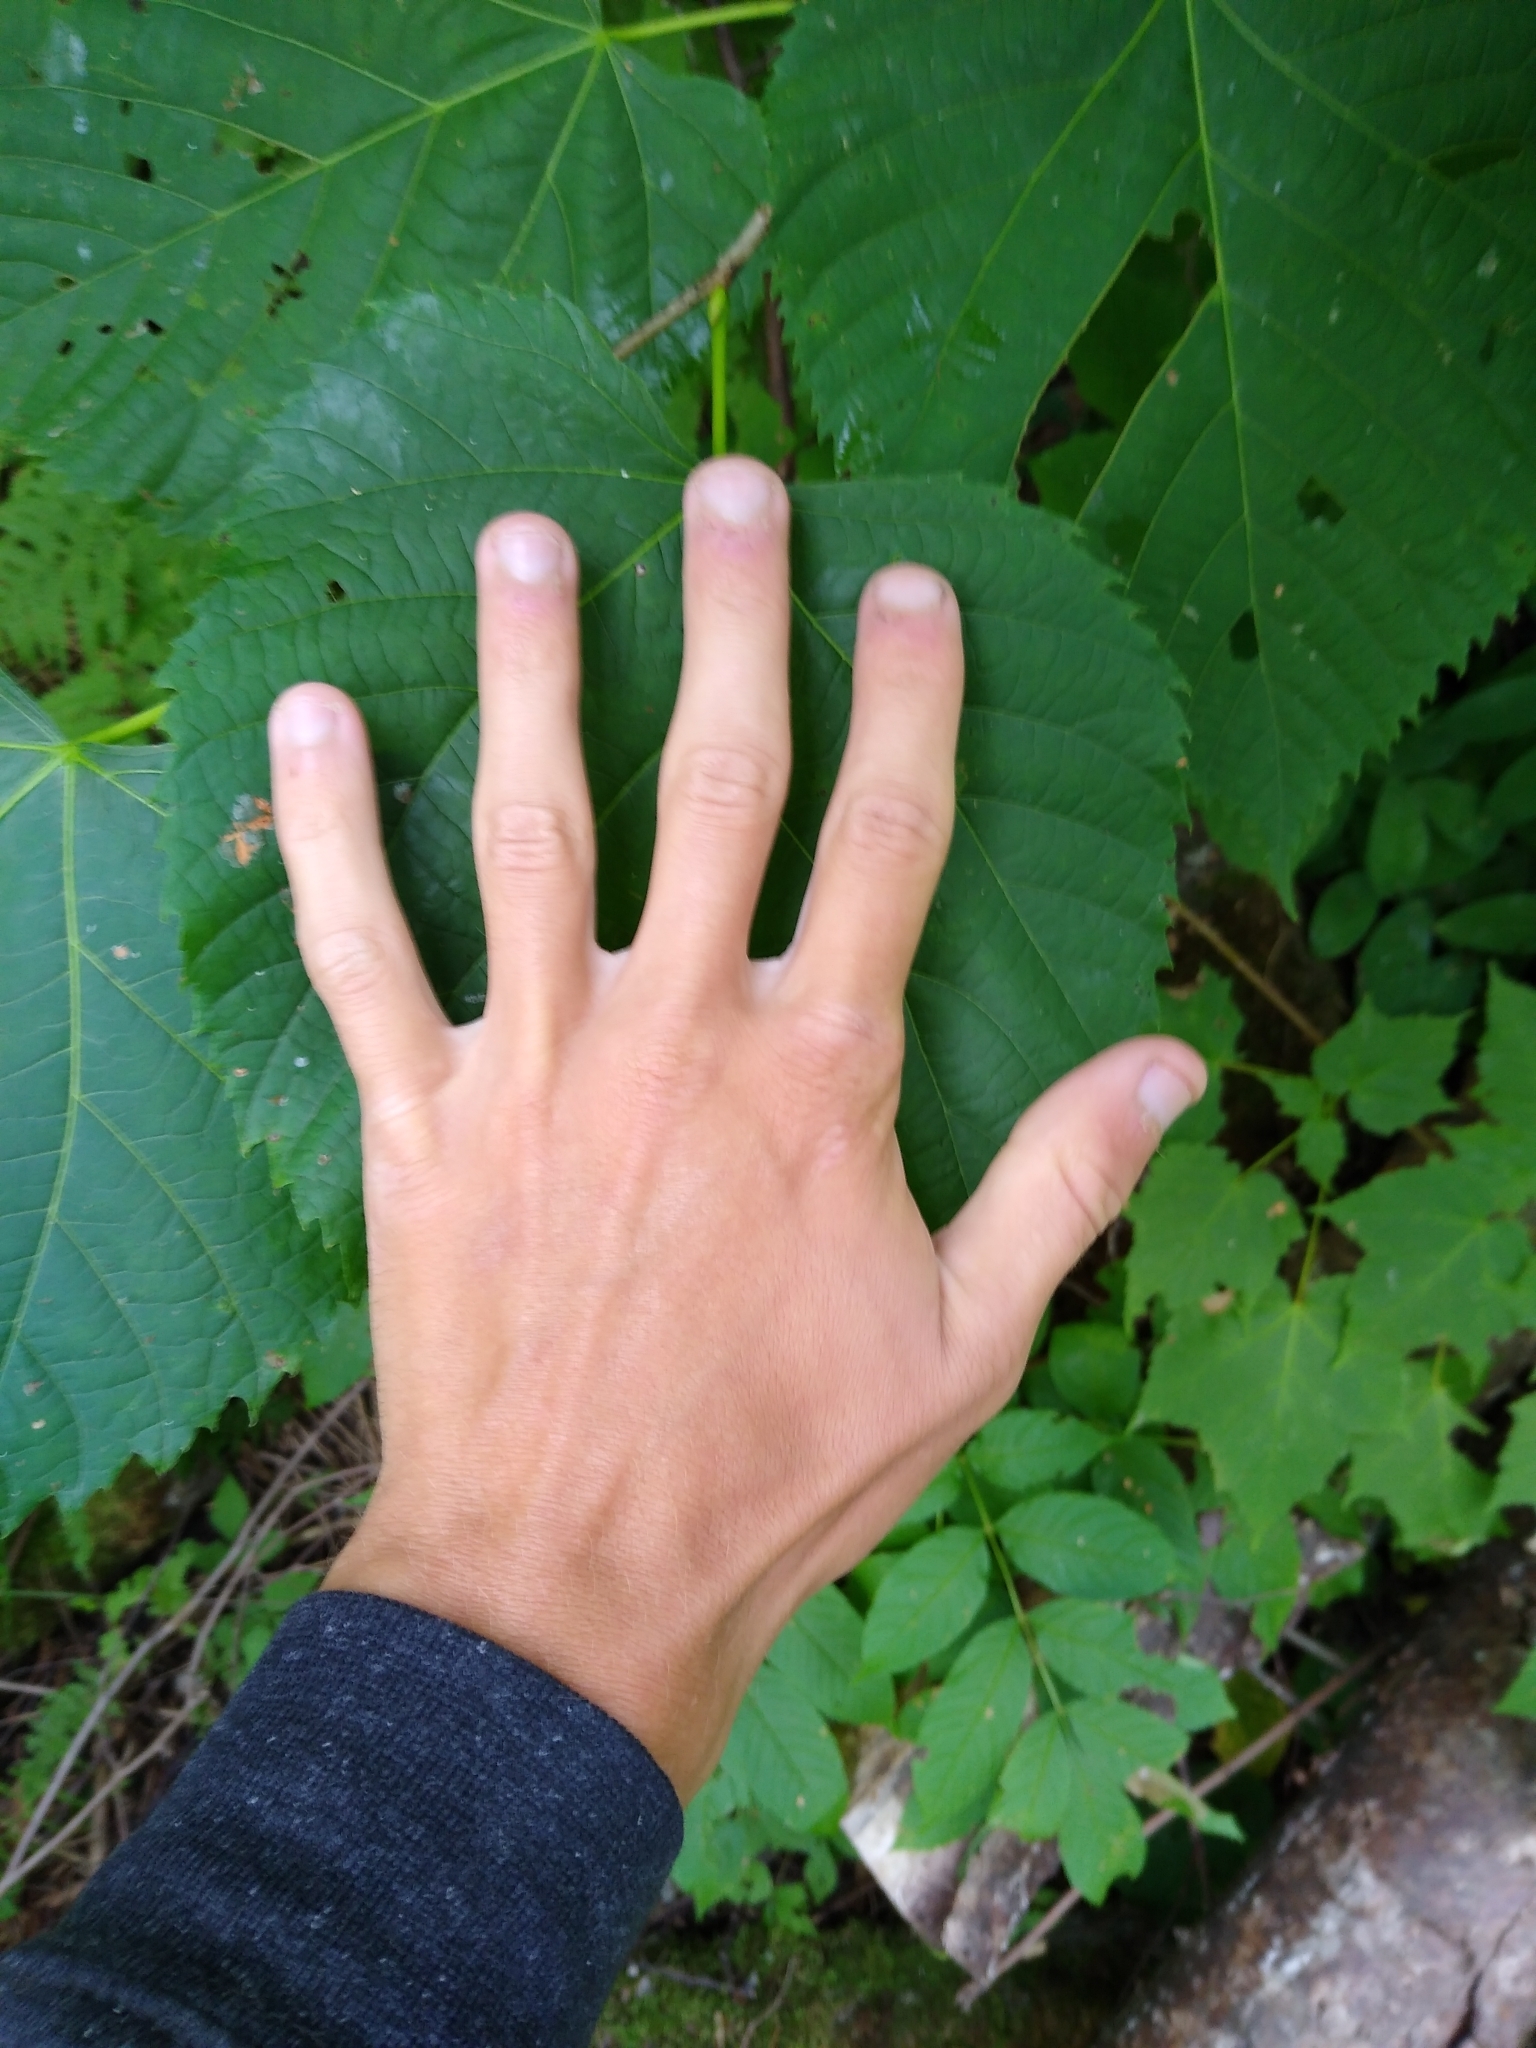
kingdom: Plantae
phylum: Tracheophyta
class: Magnoliopsida
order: Malvales
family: Malvaceae
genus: Tilia
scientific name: Tilia americana
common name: Basswood
